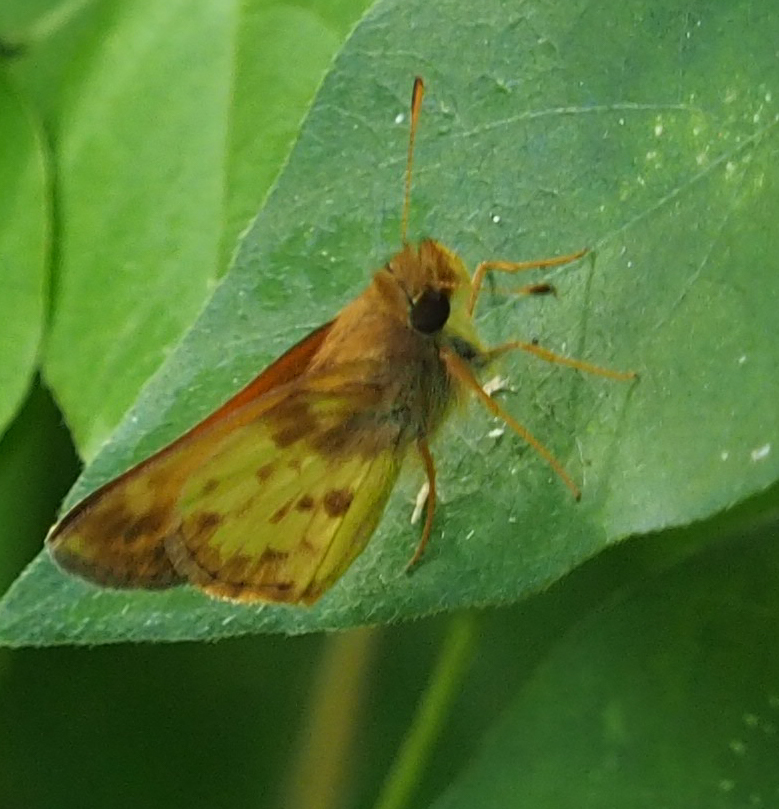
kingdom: Animalia
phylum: Arthropoda
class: Insecta
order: Lepidoptera
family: Hesperiidae
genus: Lon
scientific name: Lon zabulon
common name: Zabulon skipper
